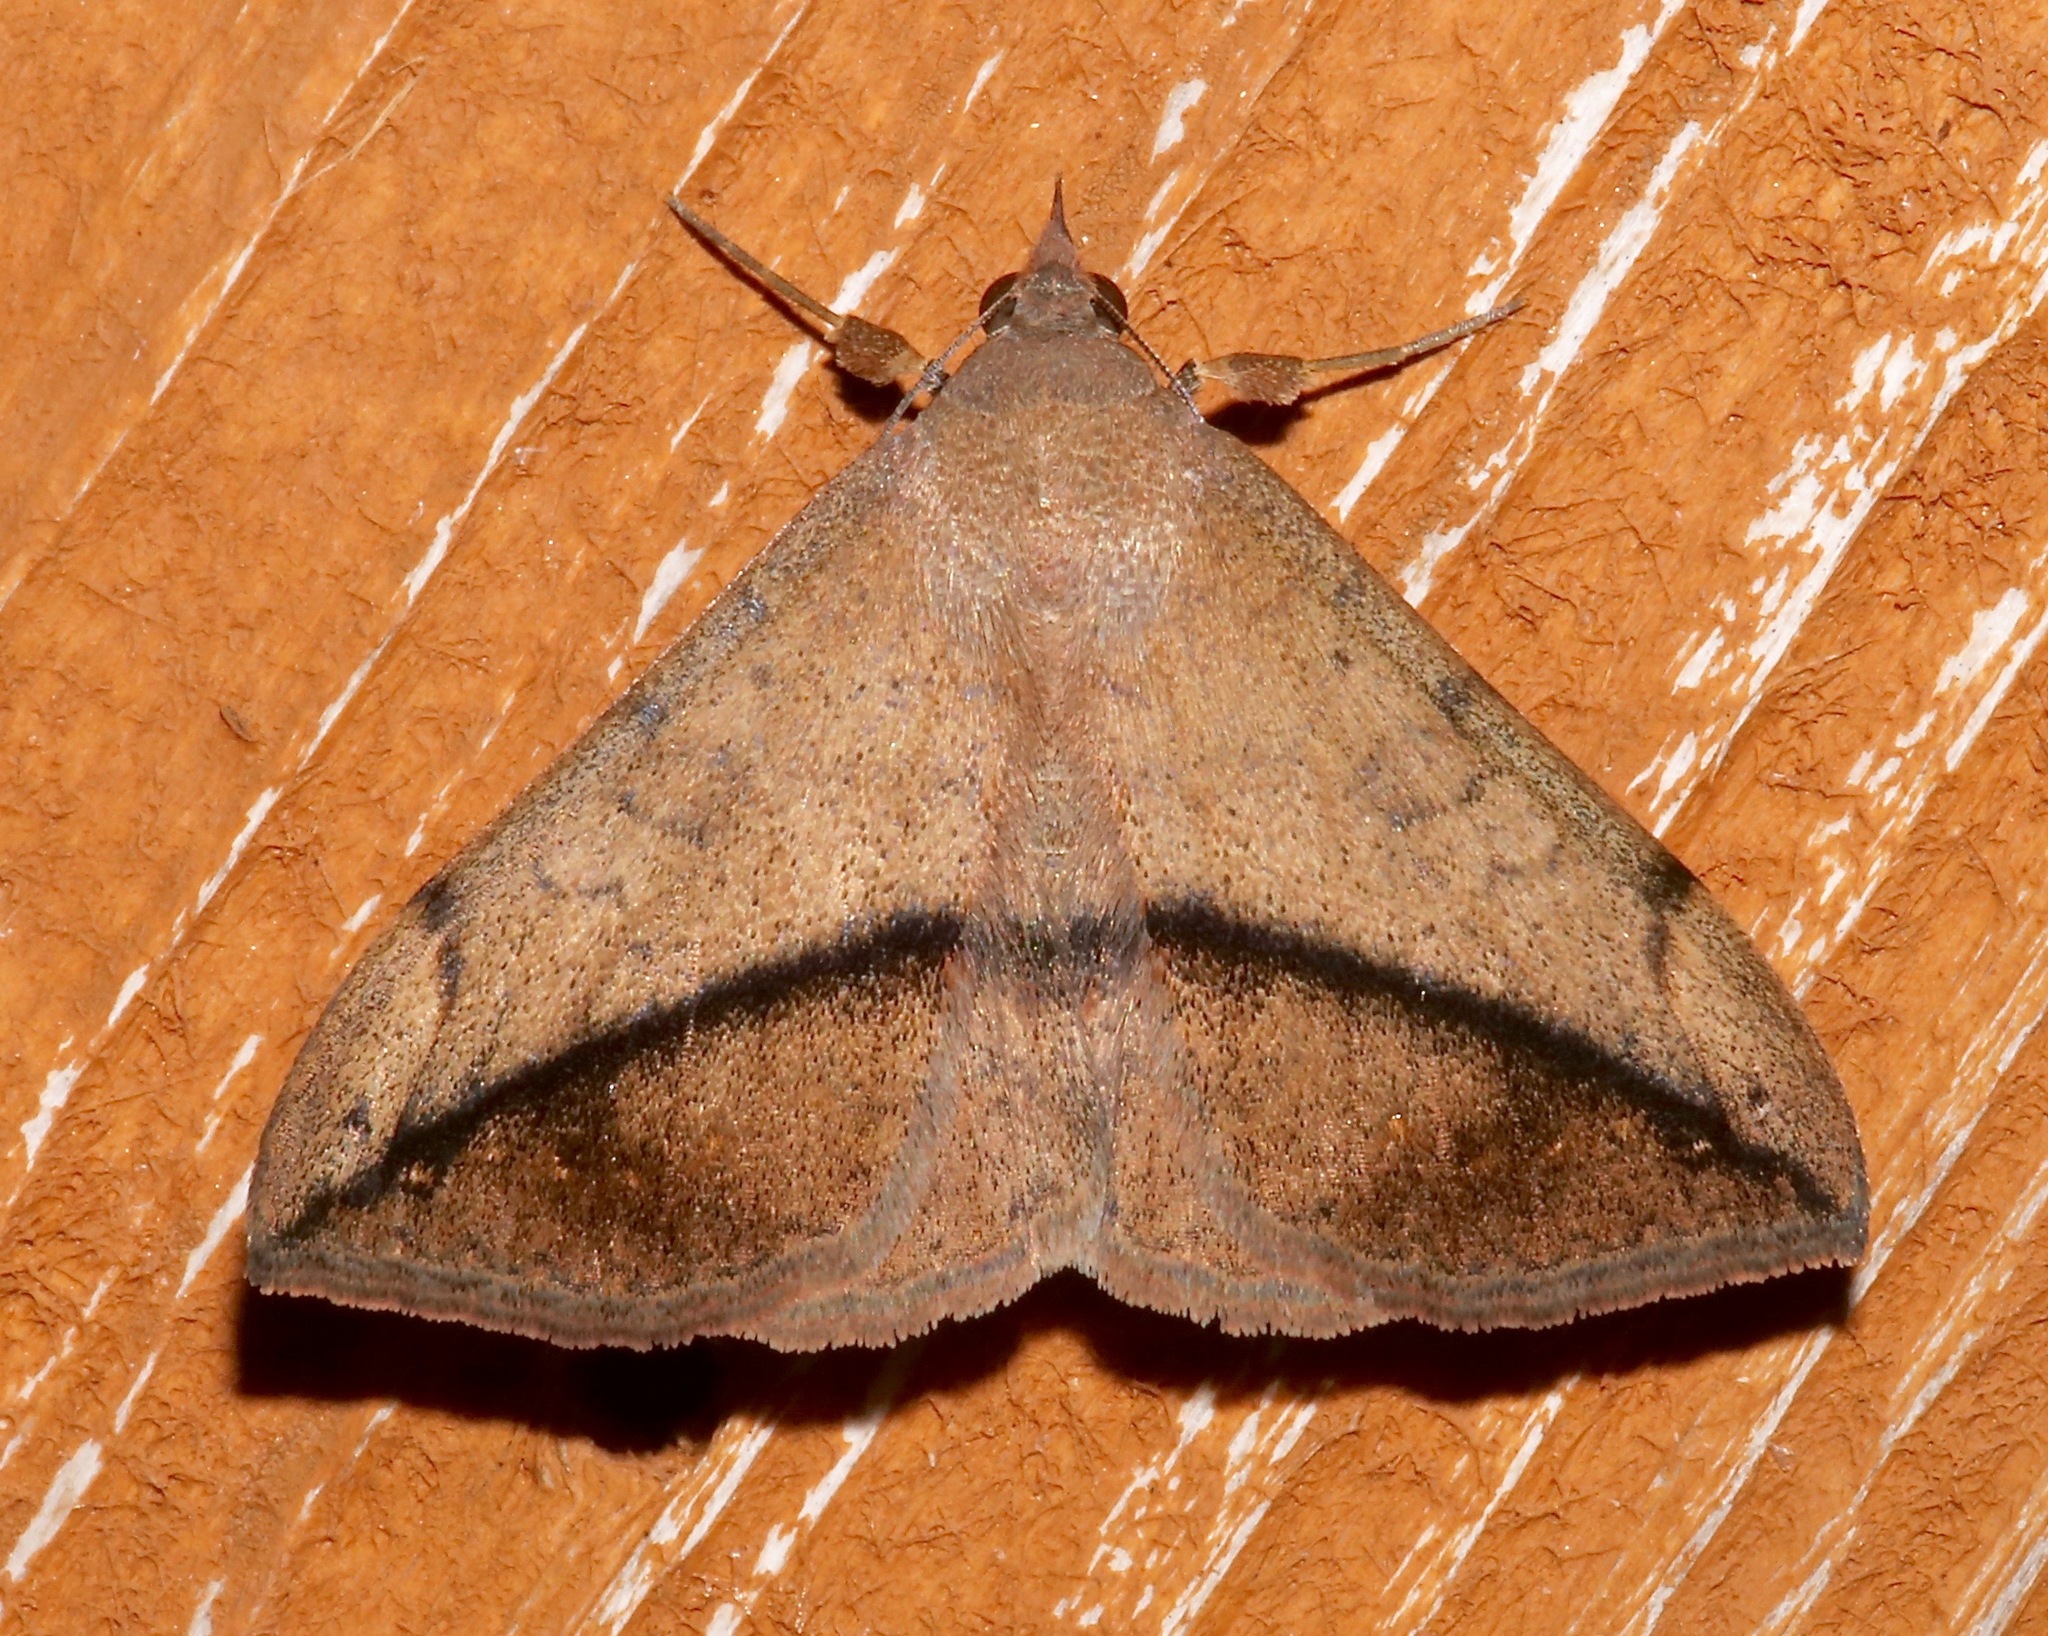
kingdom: Animalia
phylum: Arthropoda
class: Insecta
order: Lepidoptera
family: Erebidae
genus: Anticarsia
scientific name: Anticarsia gemmatalis
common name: Cutworm moth
